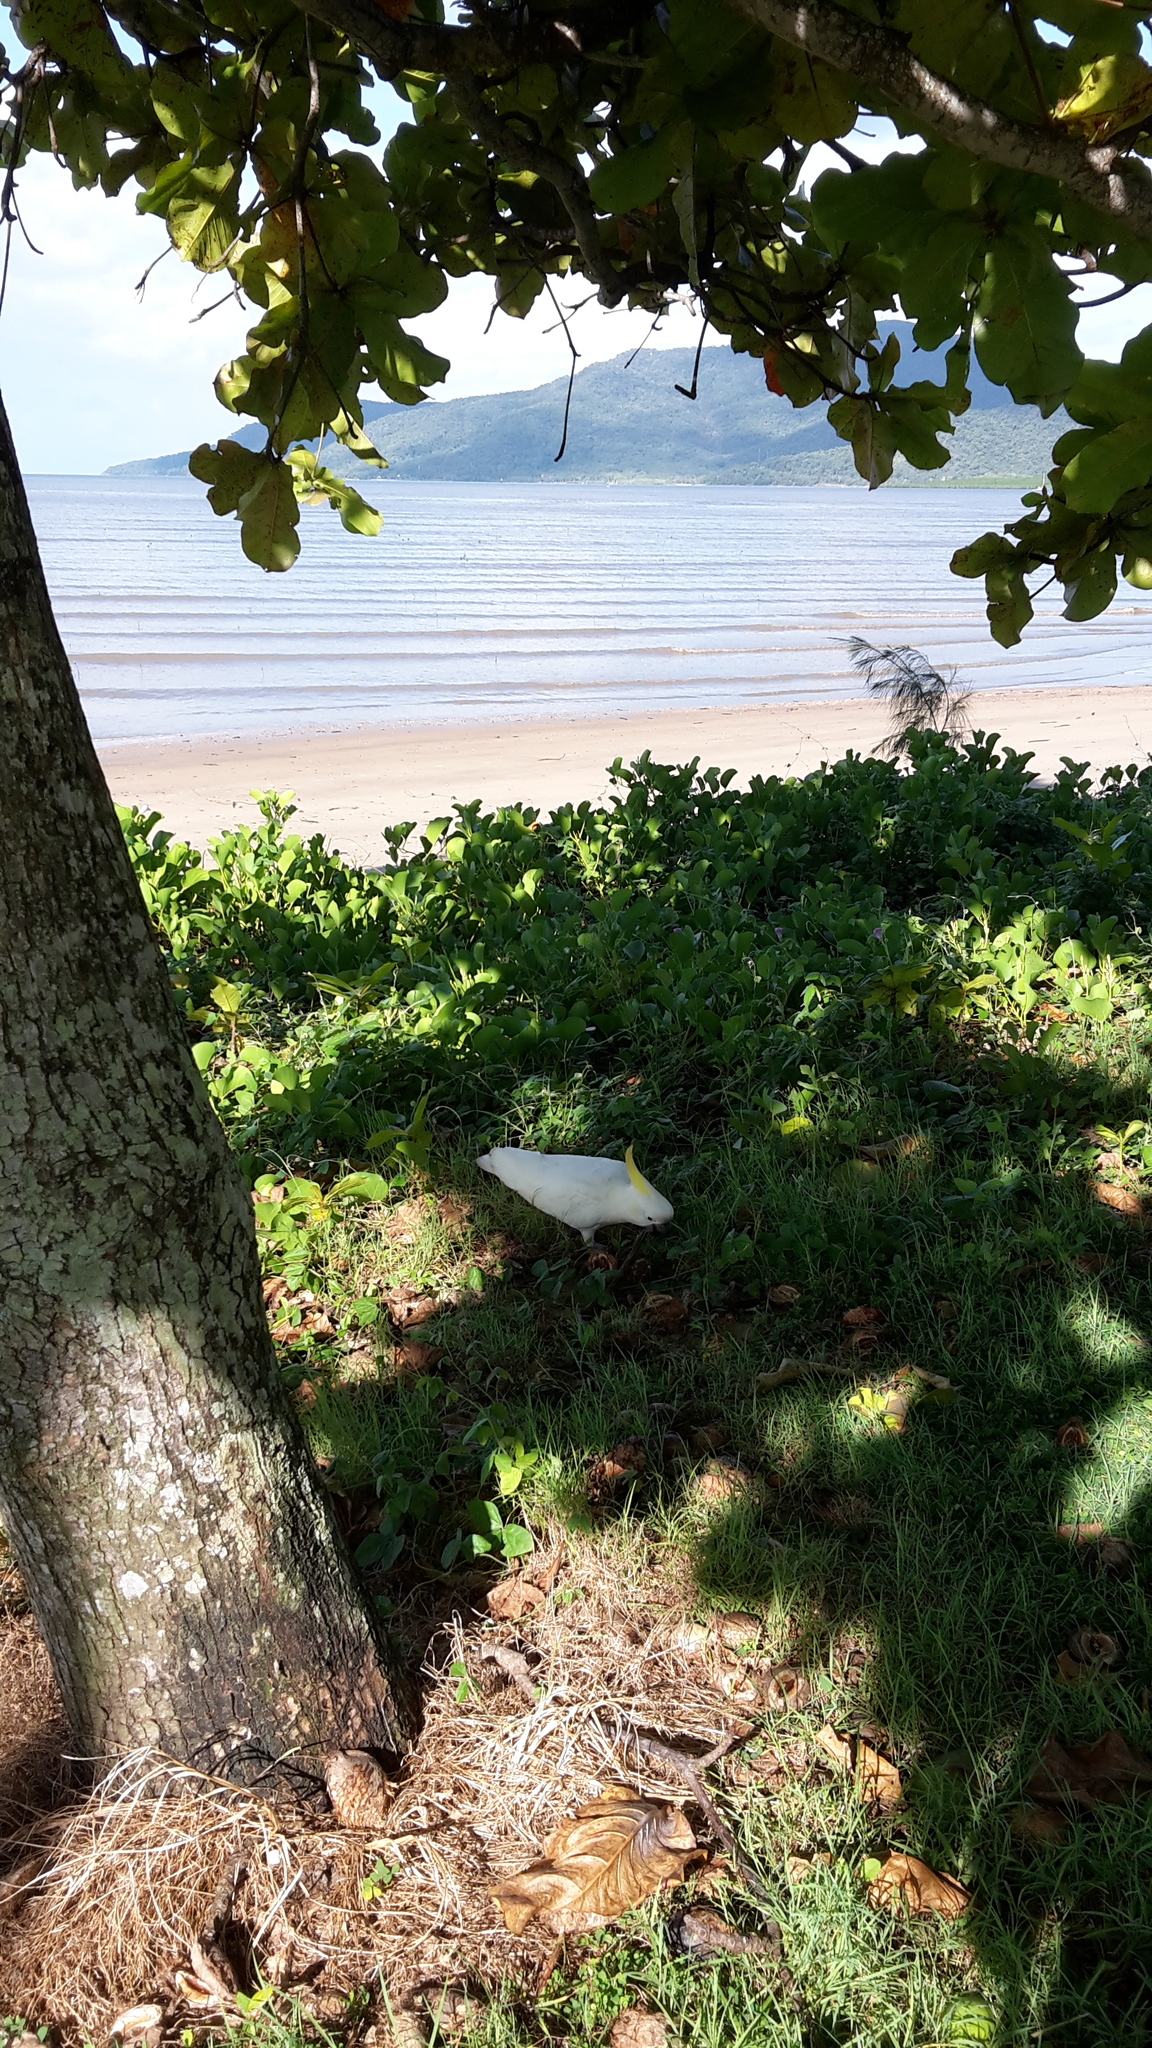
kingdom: Animalia
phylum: Chordata
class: Aves
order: Psittaciformes
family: Psittacidae
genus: Cacatua
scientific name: Cacatua galerita
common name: Sulphur-crested cockatoo
